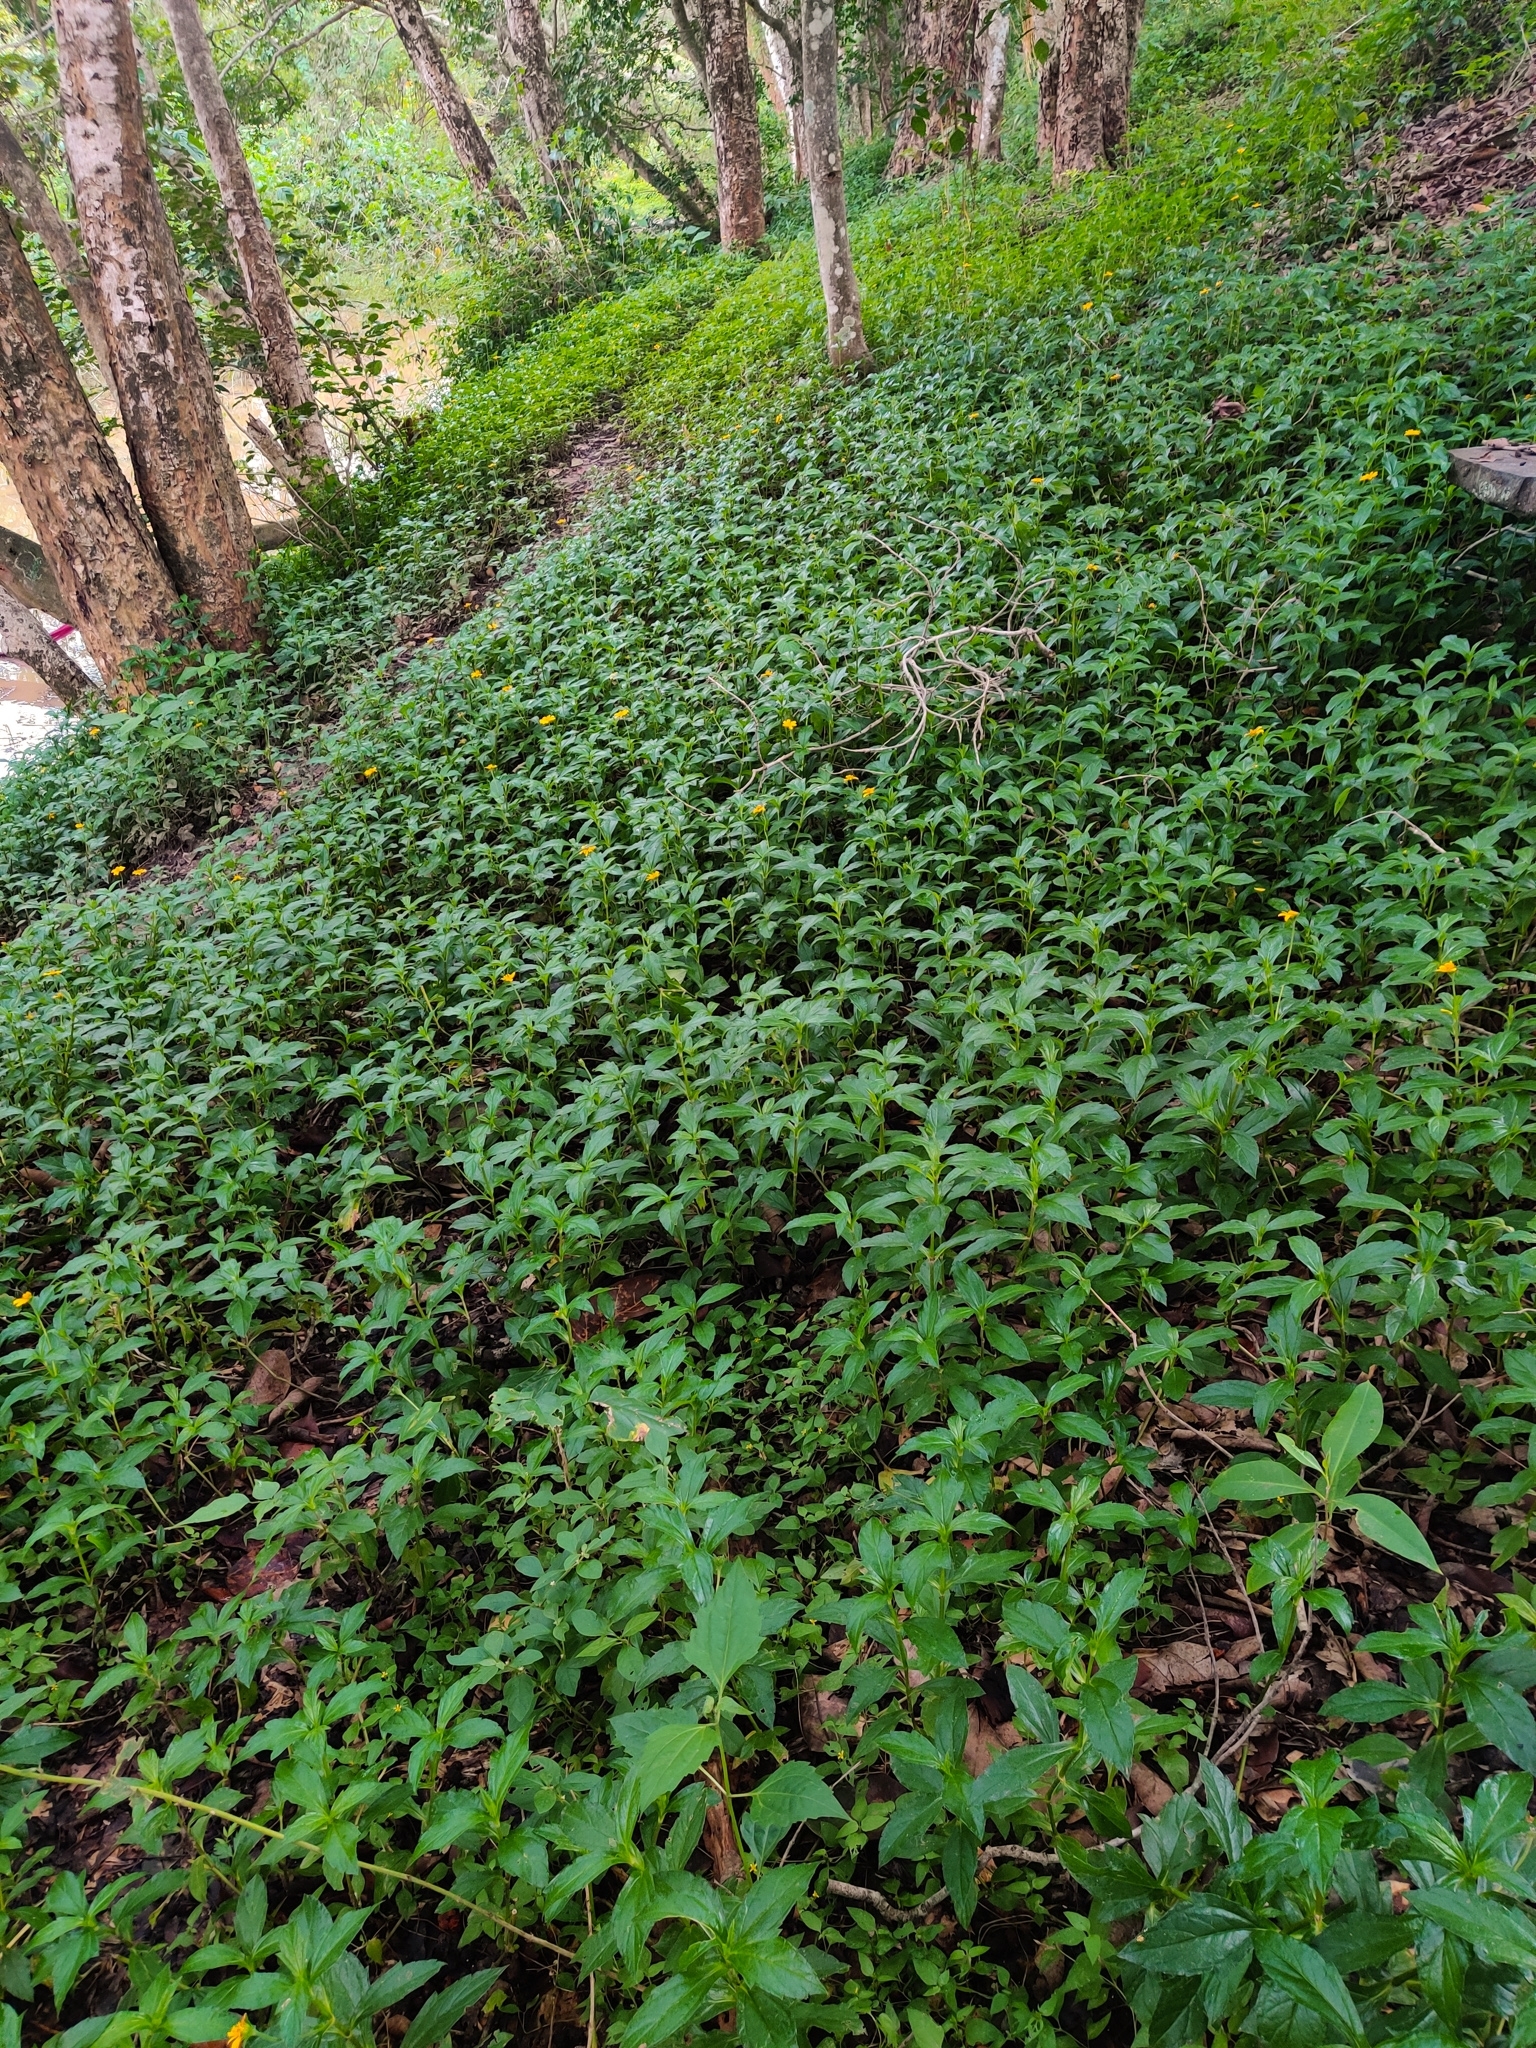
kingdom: Plantae
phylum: Tracheophyta
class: Magnoliopsida
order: Asterales
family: Asteraceae
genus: Sphagneticola
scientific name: Sphagneticola trilobata
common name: Bay biscayne creeping-oxeye
